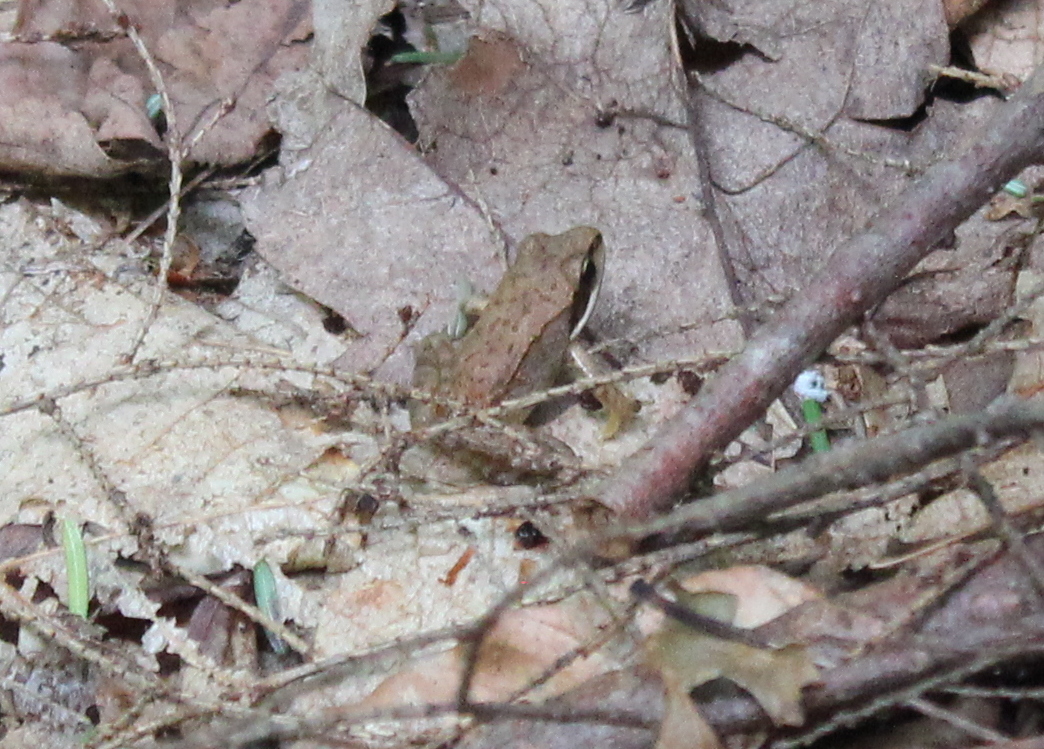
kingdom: Animalia
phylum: Chordata
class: Amphibia
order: Anura
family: Ranidae
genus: Lithobates
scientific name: Lithobates sylvaticus
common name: Wood frog
